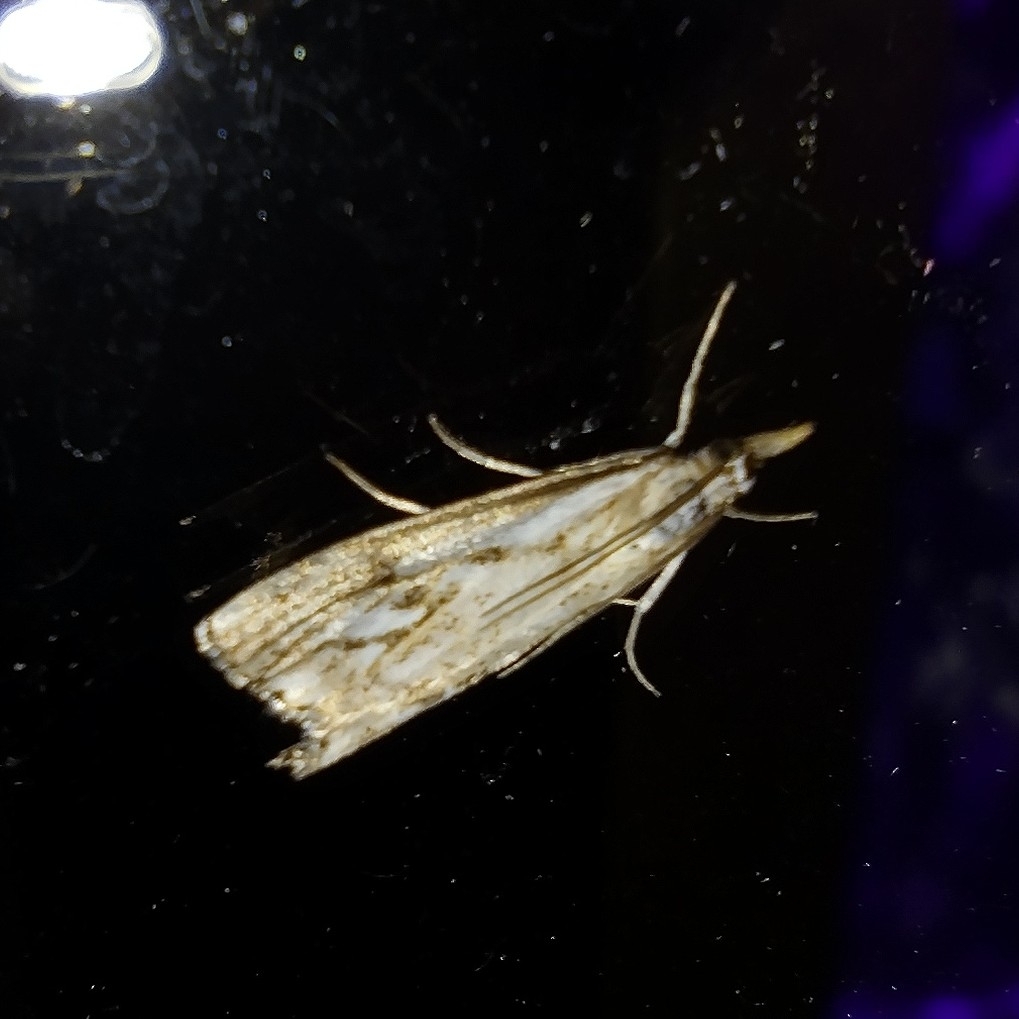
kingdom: Animalia
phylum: Arthropoda
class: Insecta
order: Lepidoptera
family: Crambidae
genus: Catoptria
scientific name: Catoptria falsella
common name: Chequered grass-veneer
